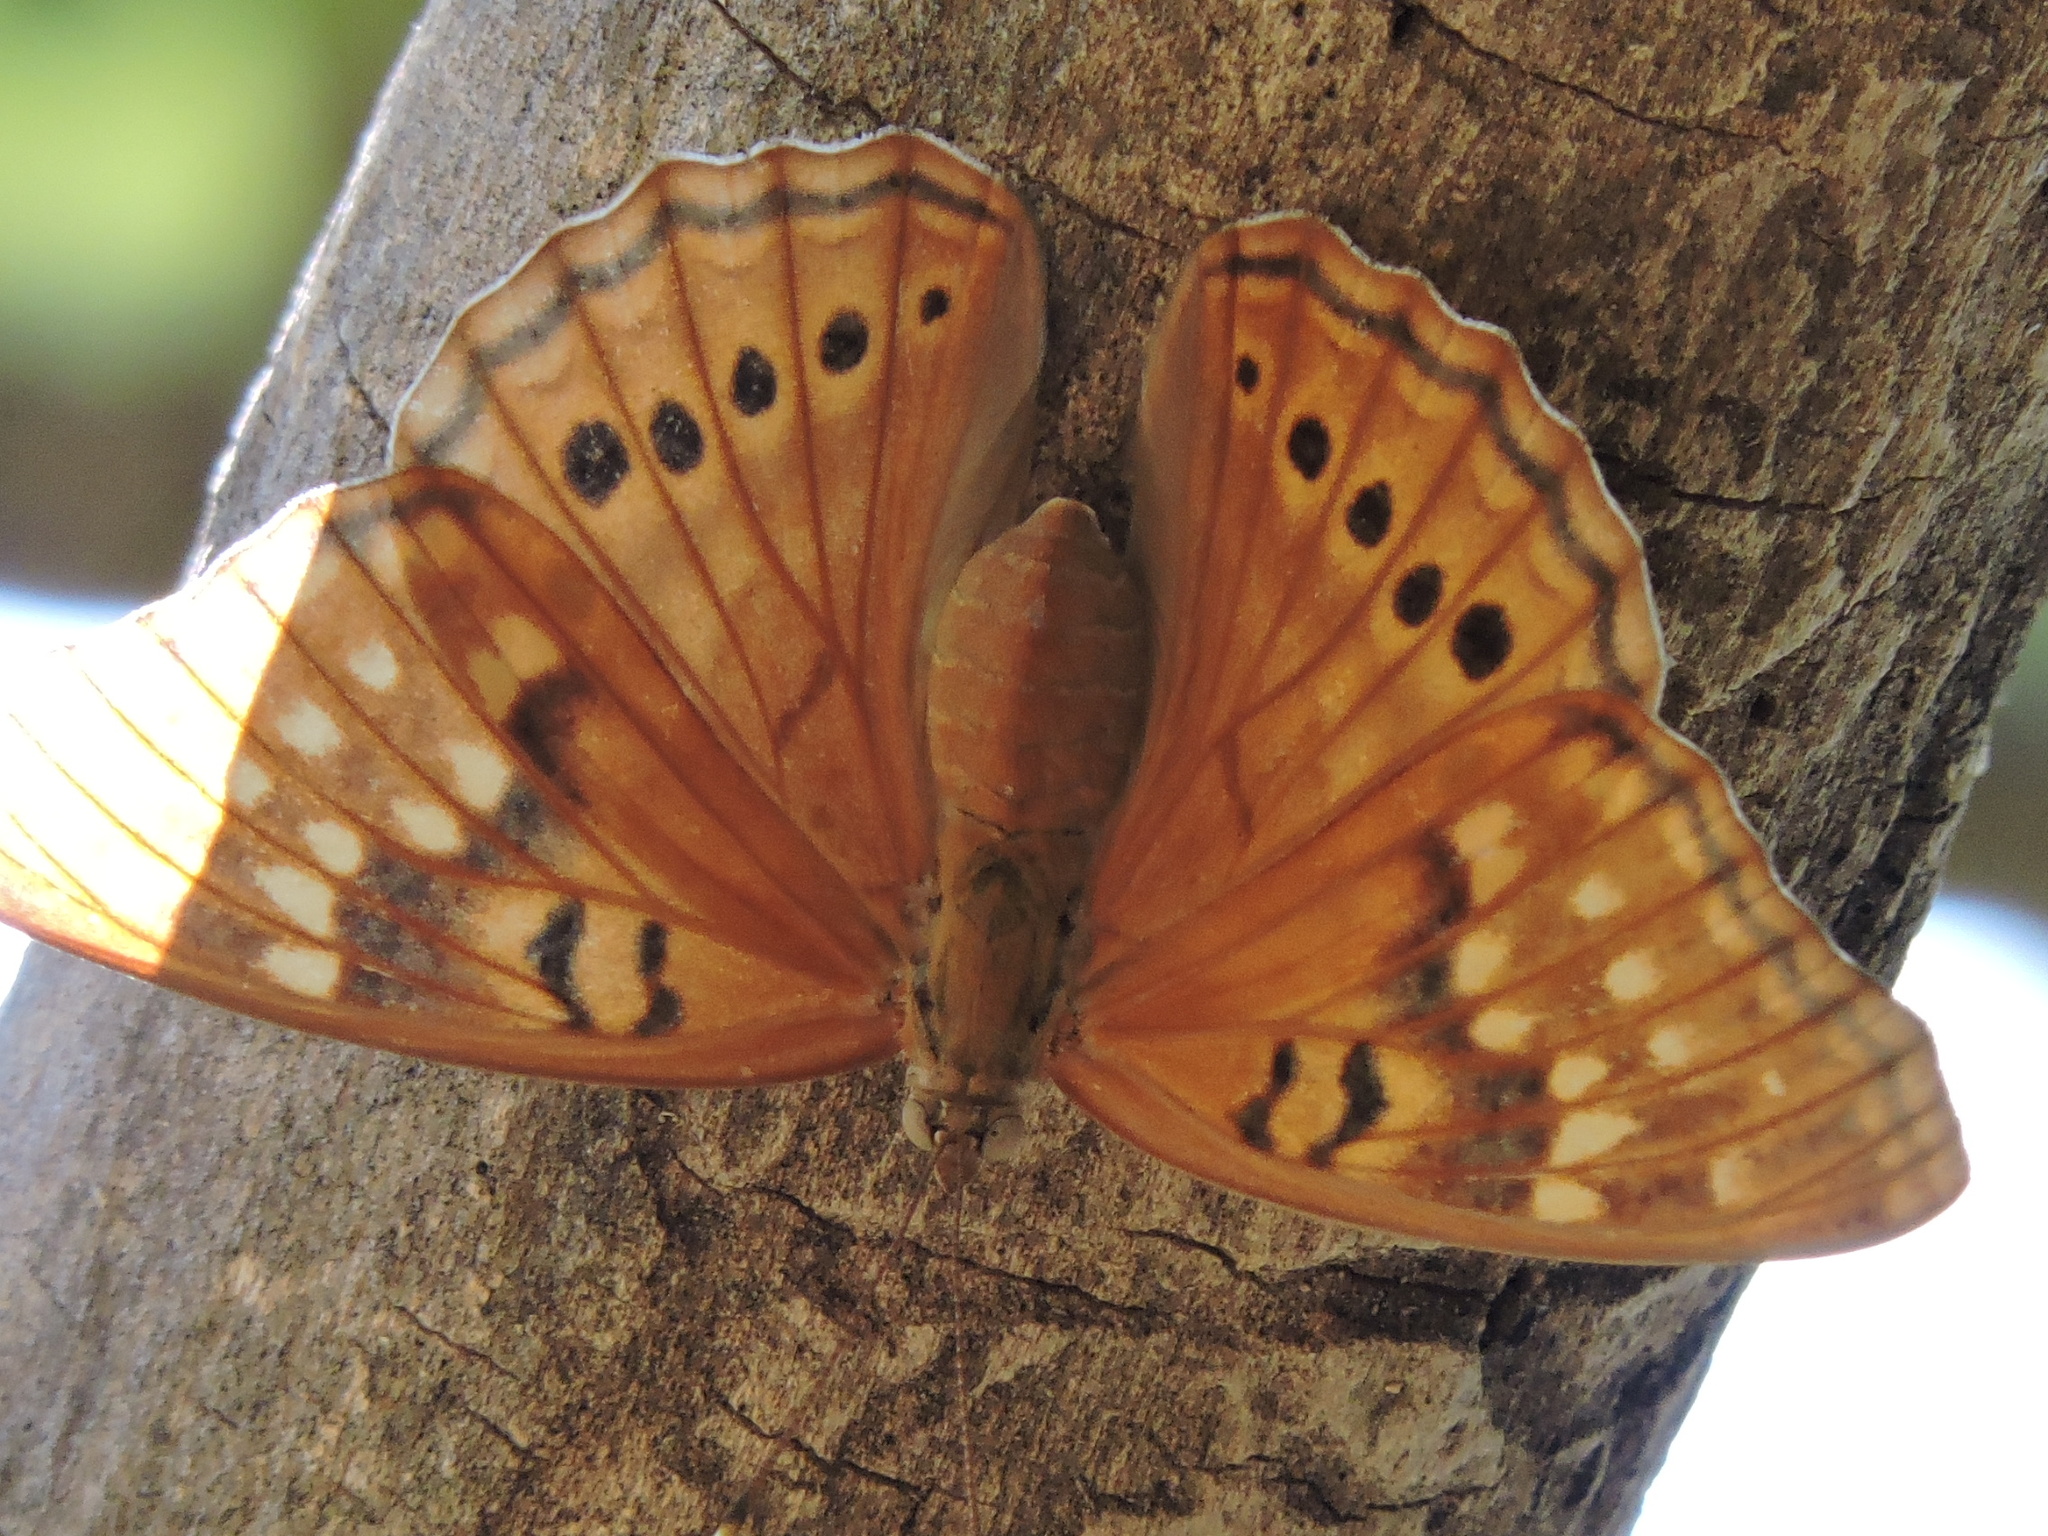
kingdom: Animalia
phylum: Arthropoda
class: Insecta
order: Lepidoptera
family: Nymphalidae
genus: Asterocampa
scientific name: Asterocampa clyton
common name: Tawny emperor
